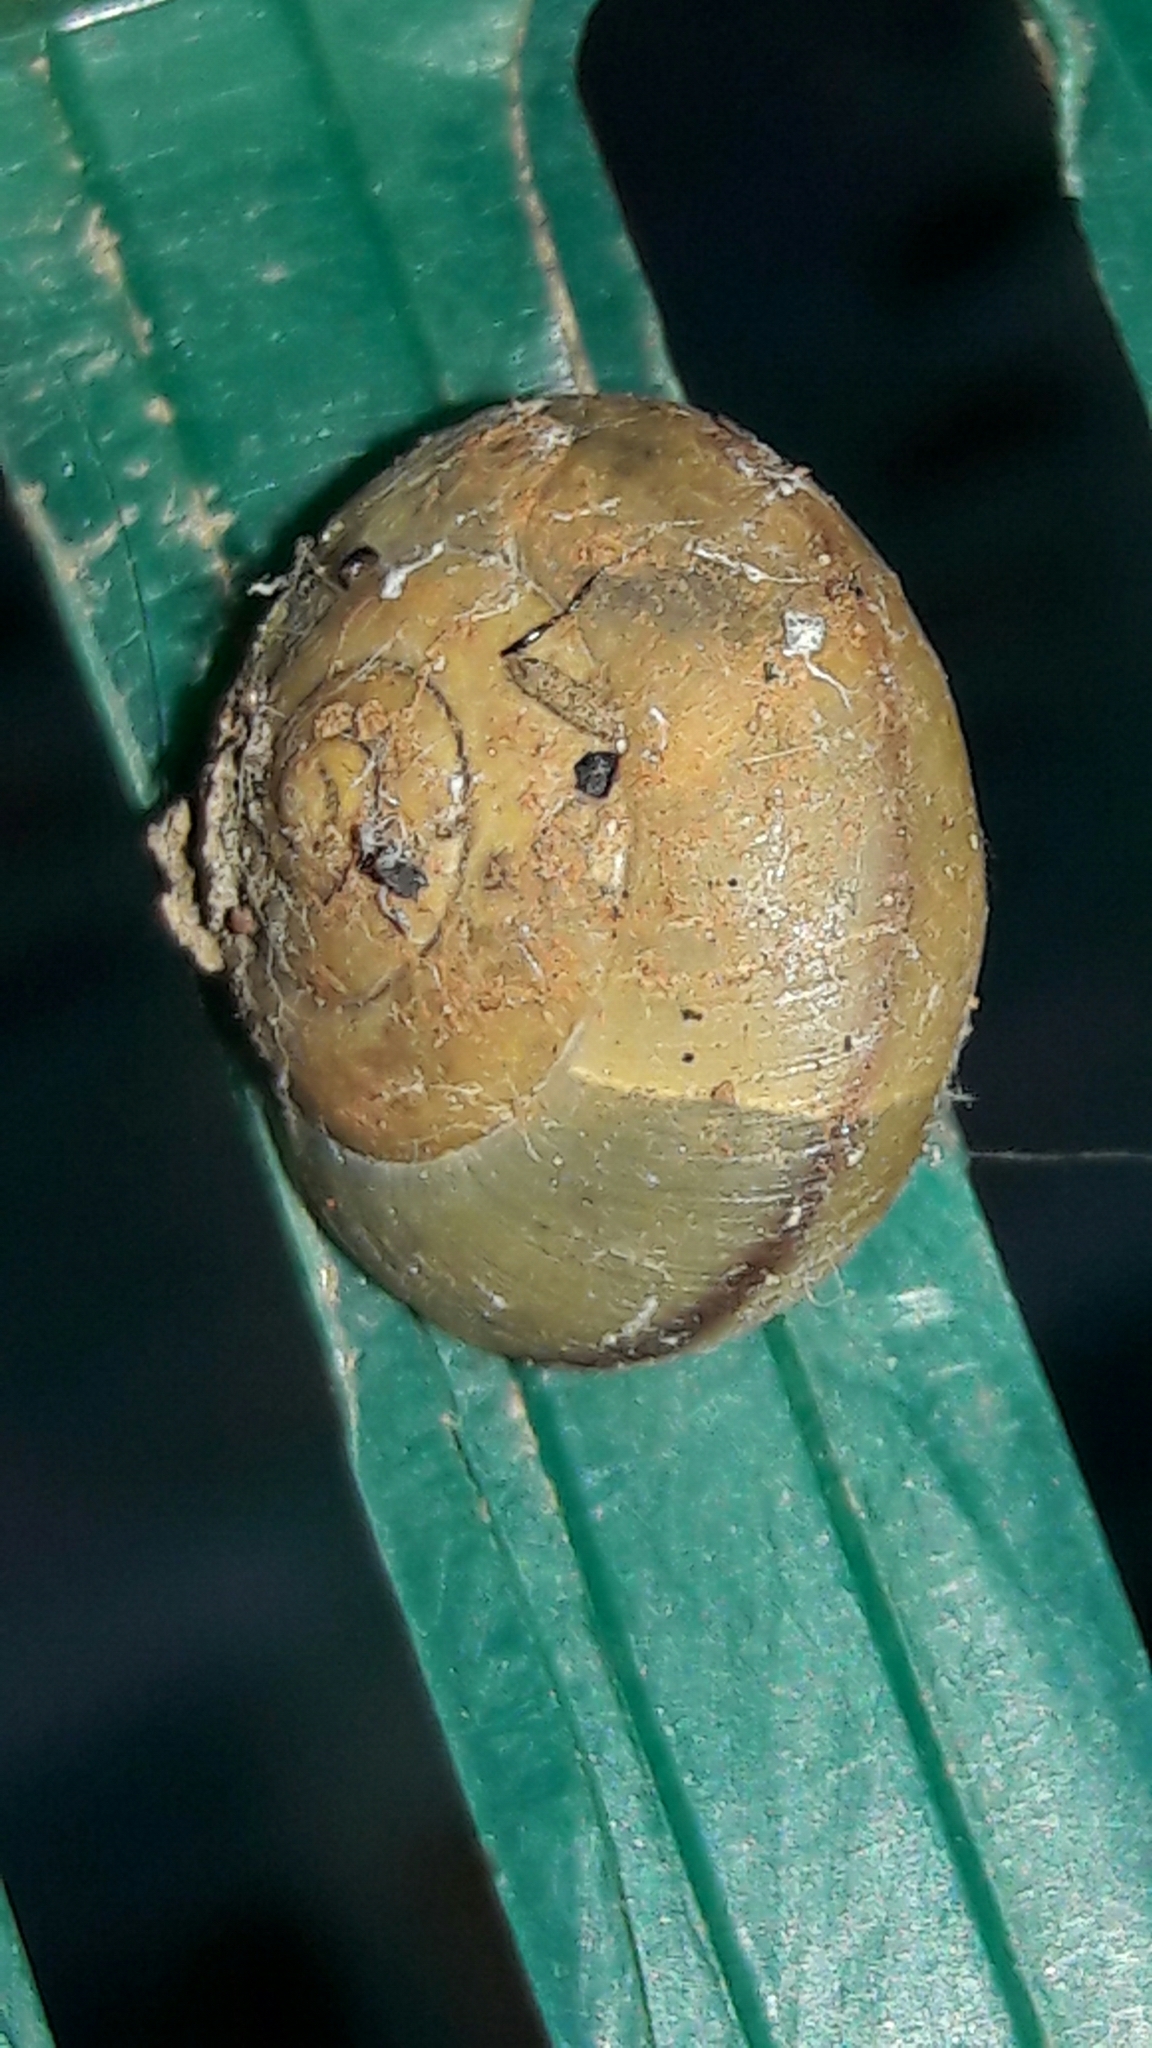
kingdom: Animalia
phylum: Mollusca
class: Gastropoda
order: Stylommatophora
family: Camaenidae
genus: Bradybaena
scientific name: Bradybaena similaris
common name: Asian trampsnail
